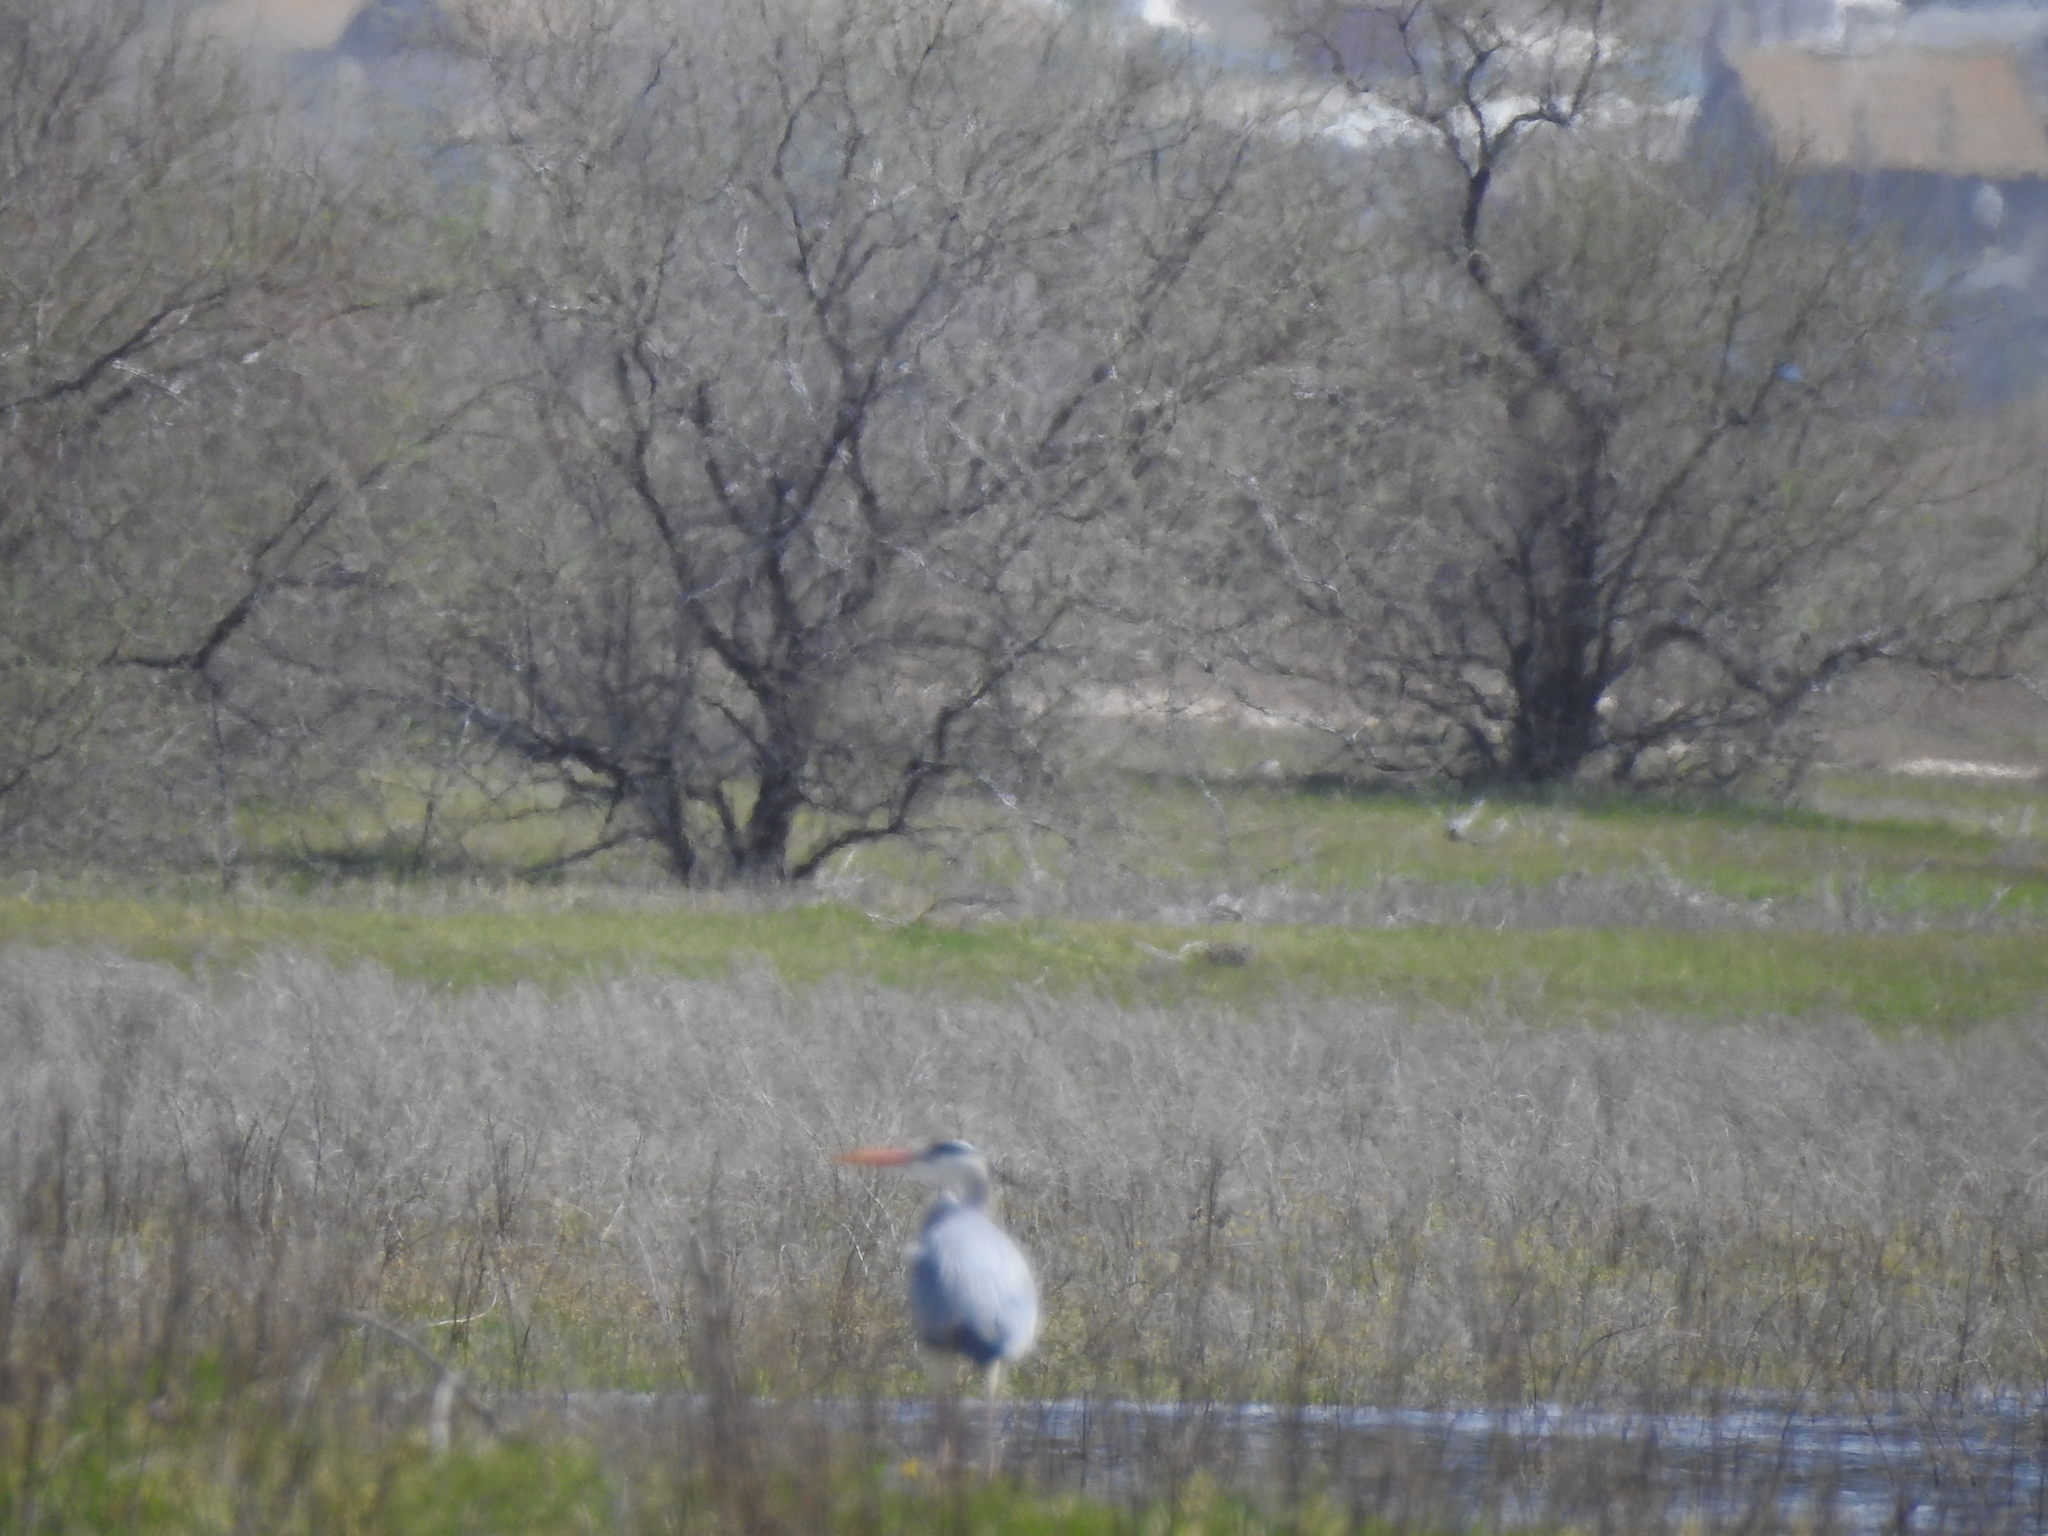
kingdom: Animalia
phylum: Chordata
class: Aves
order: Pelecaniformes
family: Ardeidae
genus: Ardea
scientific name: Ardea cinerea
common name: Grey heron
